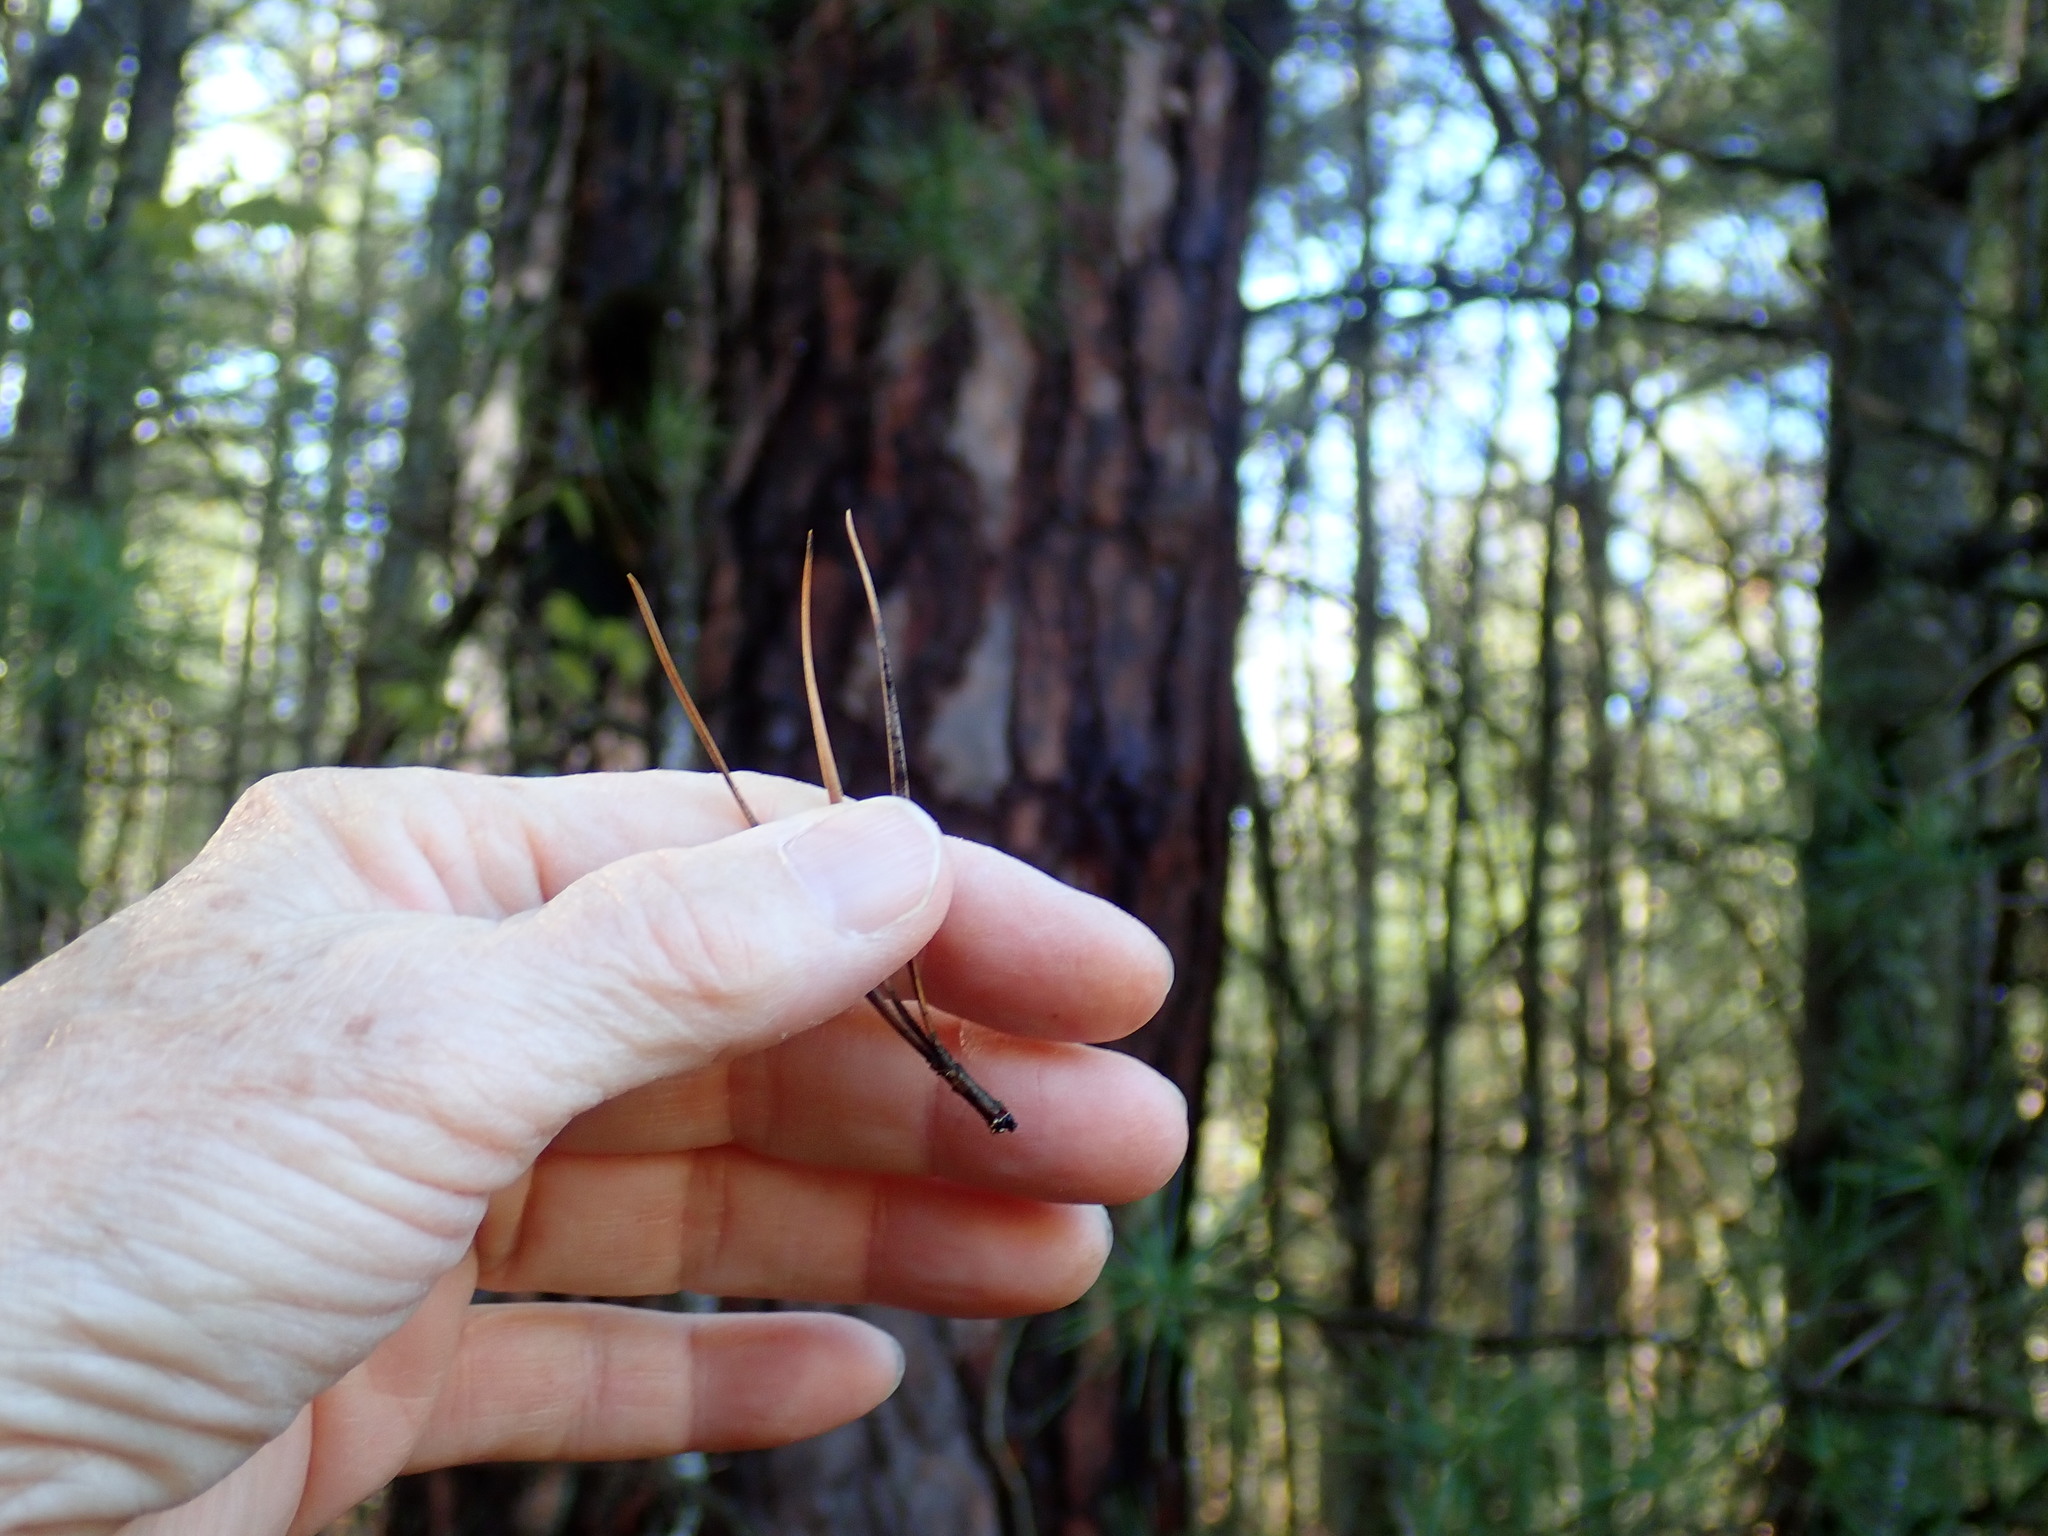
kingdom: Plantae
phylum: Tracheophyta
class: Pinopsida
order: Pinales
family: Pinaceae
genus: Pinus
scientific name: Pinus rigida
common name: Pitch pine
